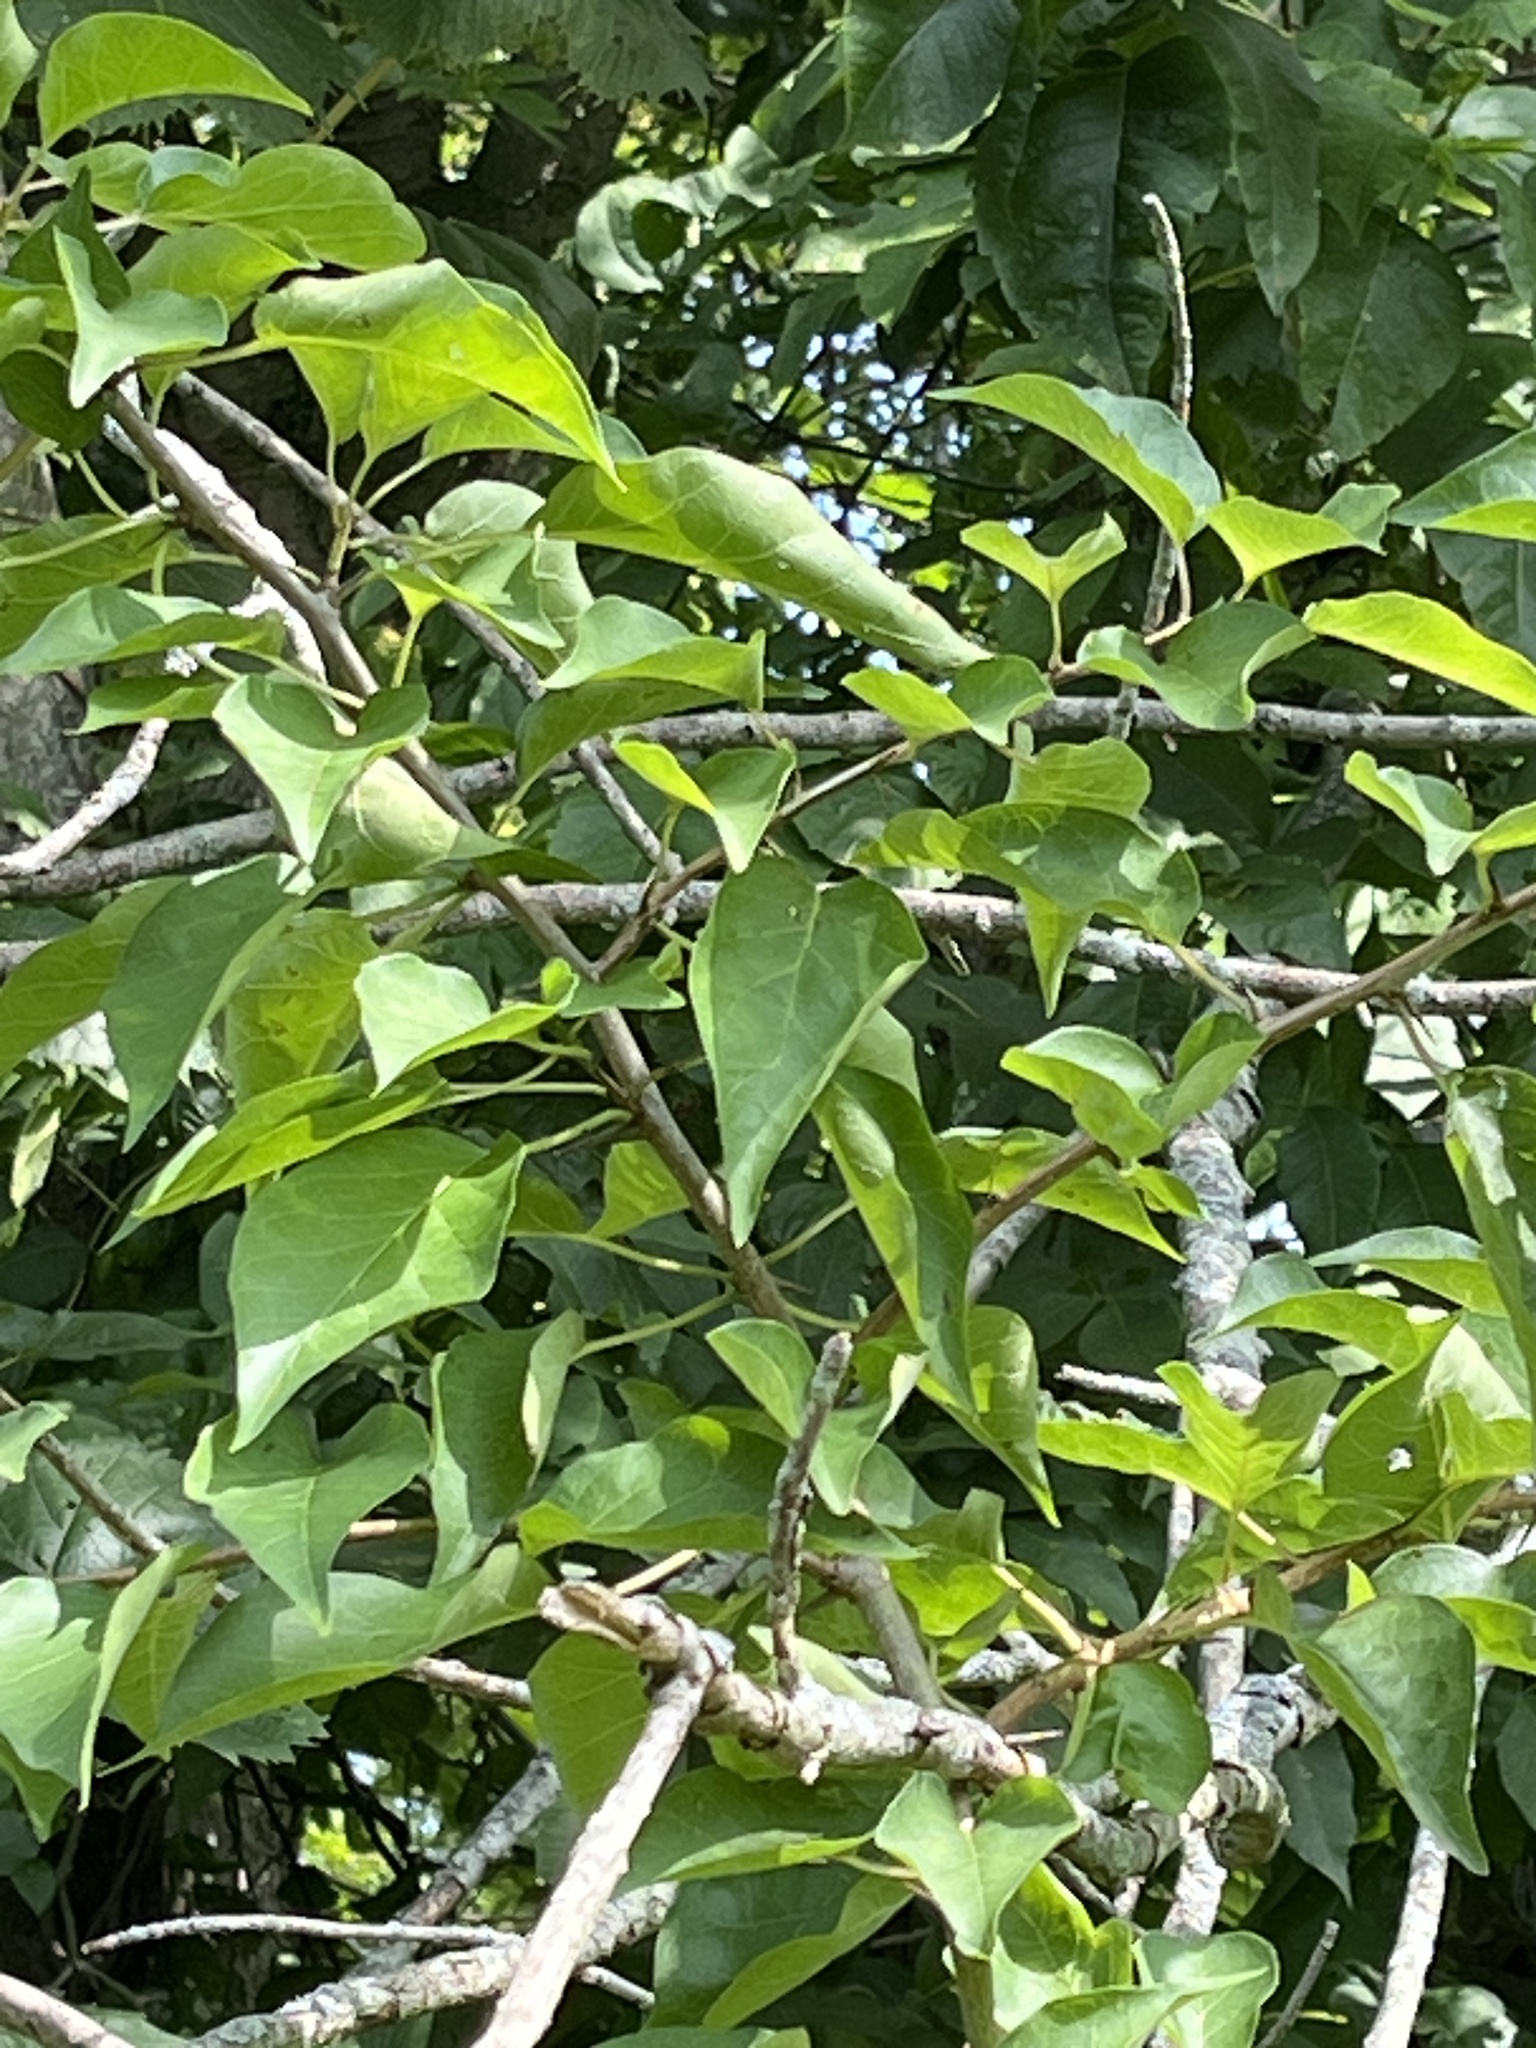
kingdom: Plantae
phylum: Tracheophyta
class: Magnoliopsida
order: Rosales
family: Moraceae
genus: Maclura
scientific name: Maclura pomifera
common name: Osage-orange
